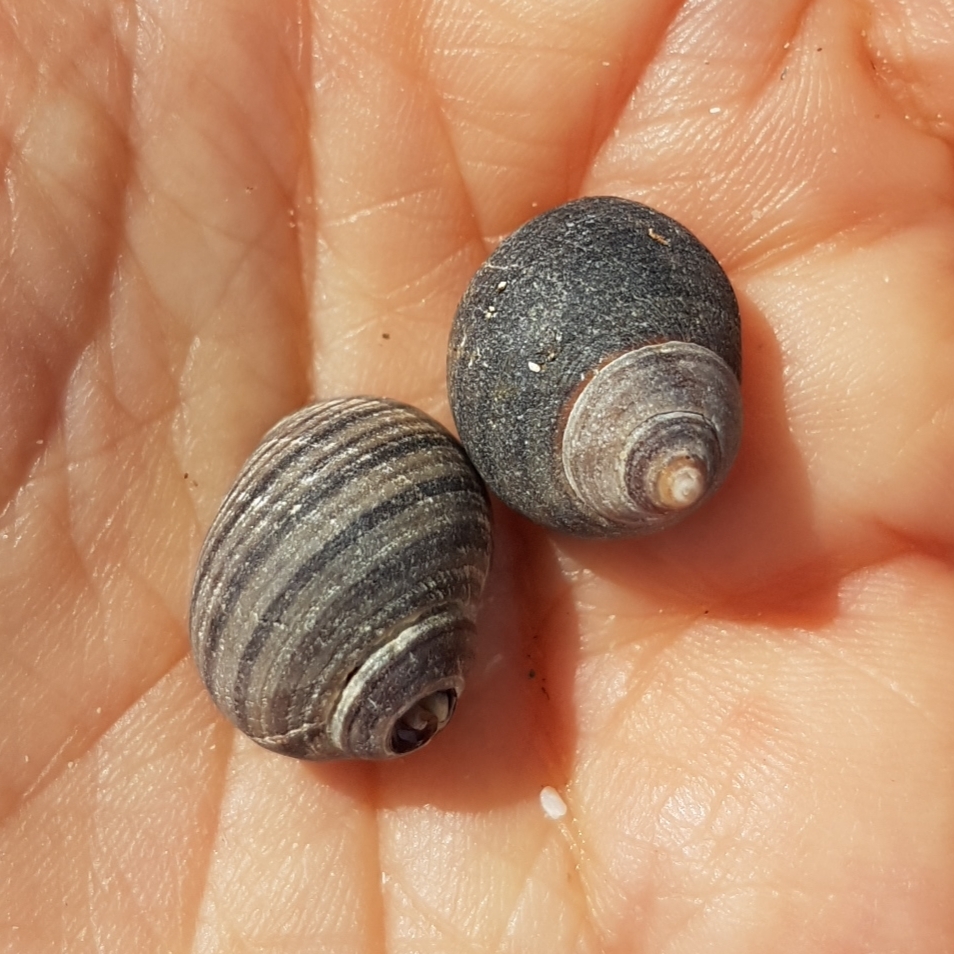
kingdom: Animalia
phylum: Mollusca
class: Gastropoda
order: Littorinimorpha
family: Littorinidae
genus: Littorina
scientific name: Littorina littorea
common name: Common periwinkle
